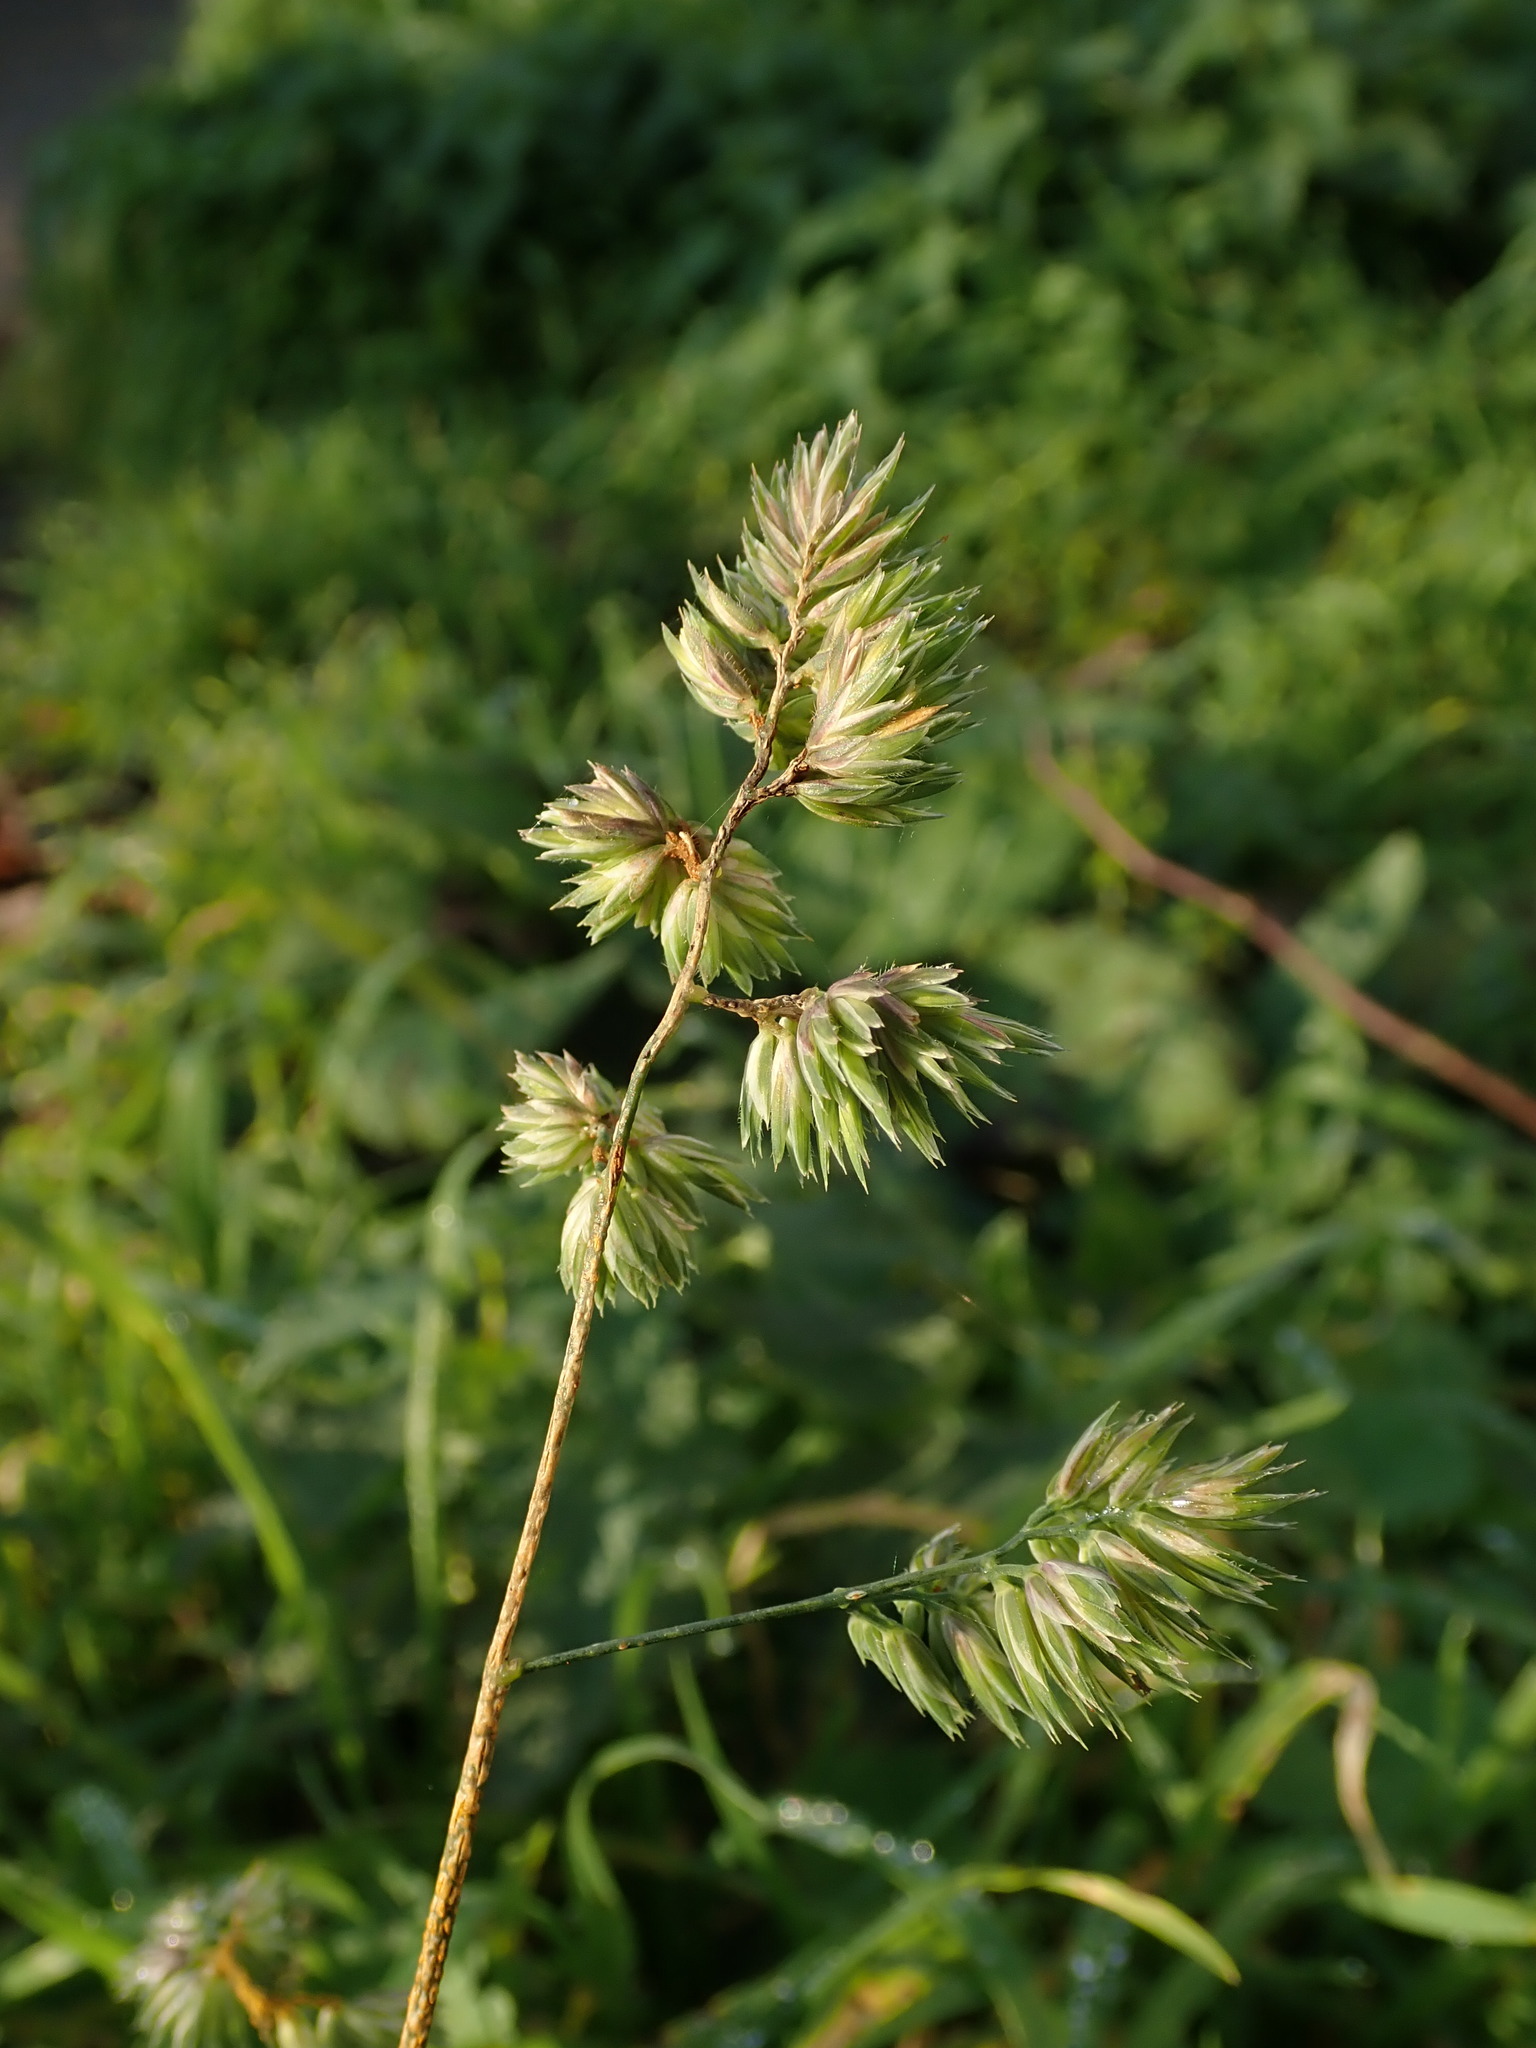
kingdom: Plantae
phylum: Tracheophyta
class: Liliopsida
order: Poales
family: Poaceae
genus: Dactylis
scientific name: Dactylis glomerata
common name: Orchardgrass
